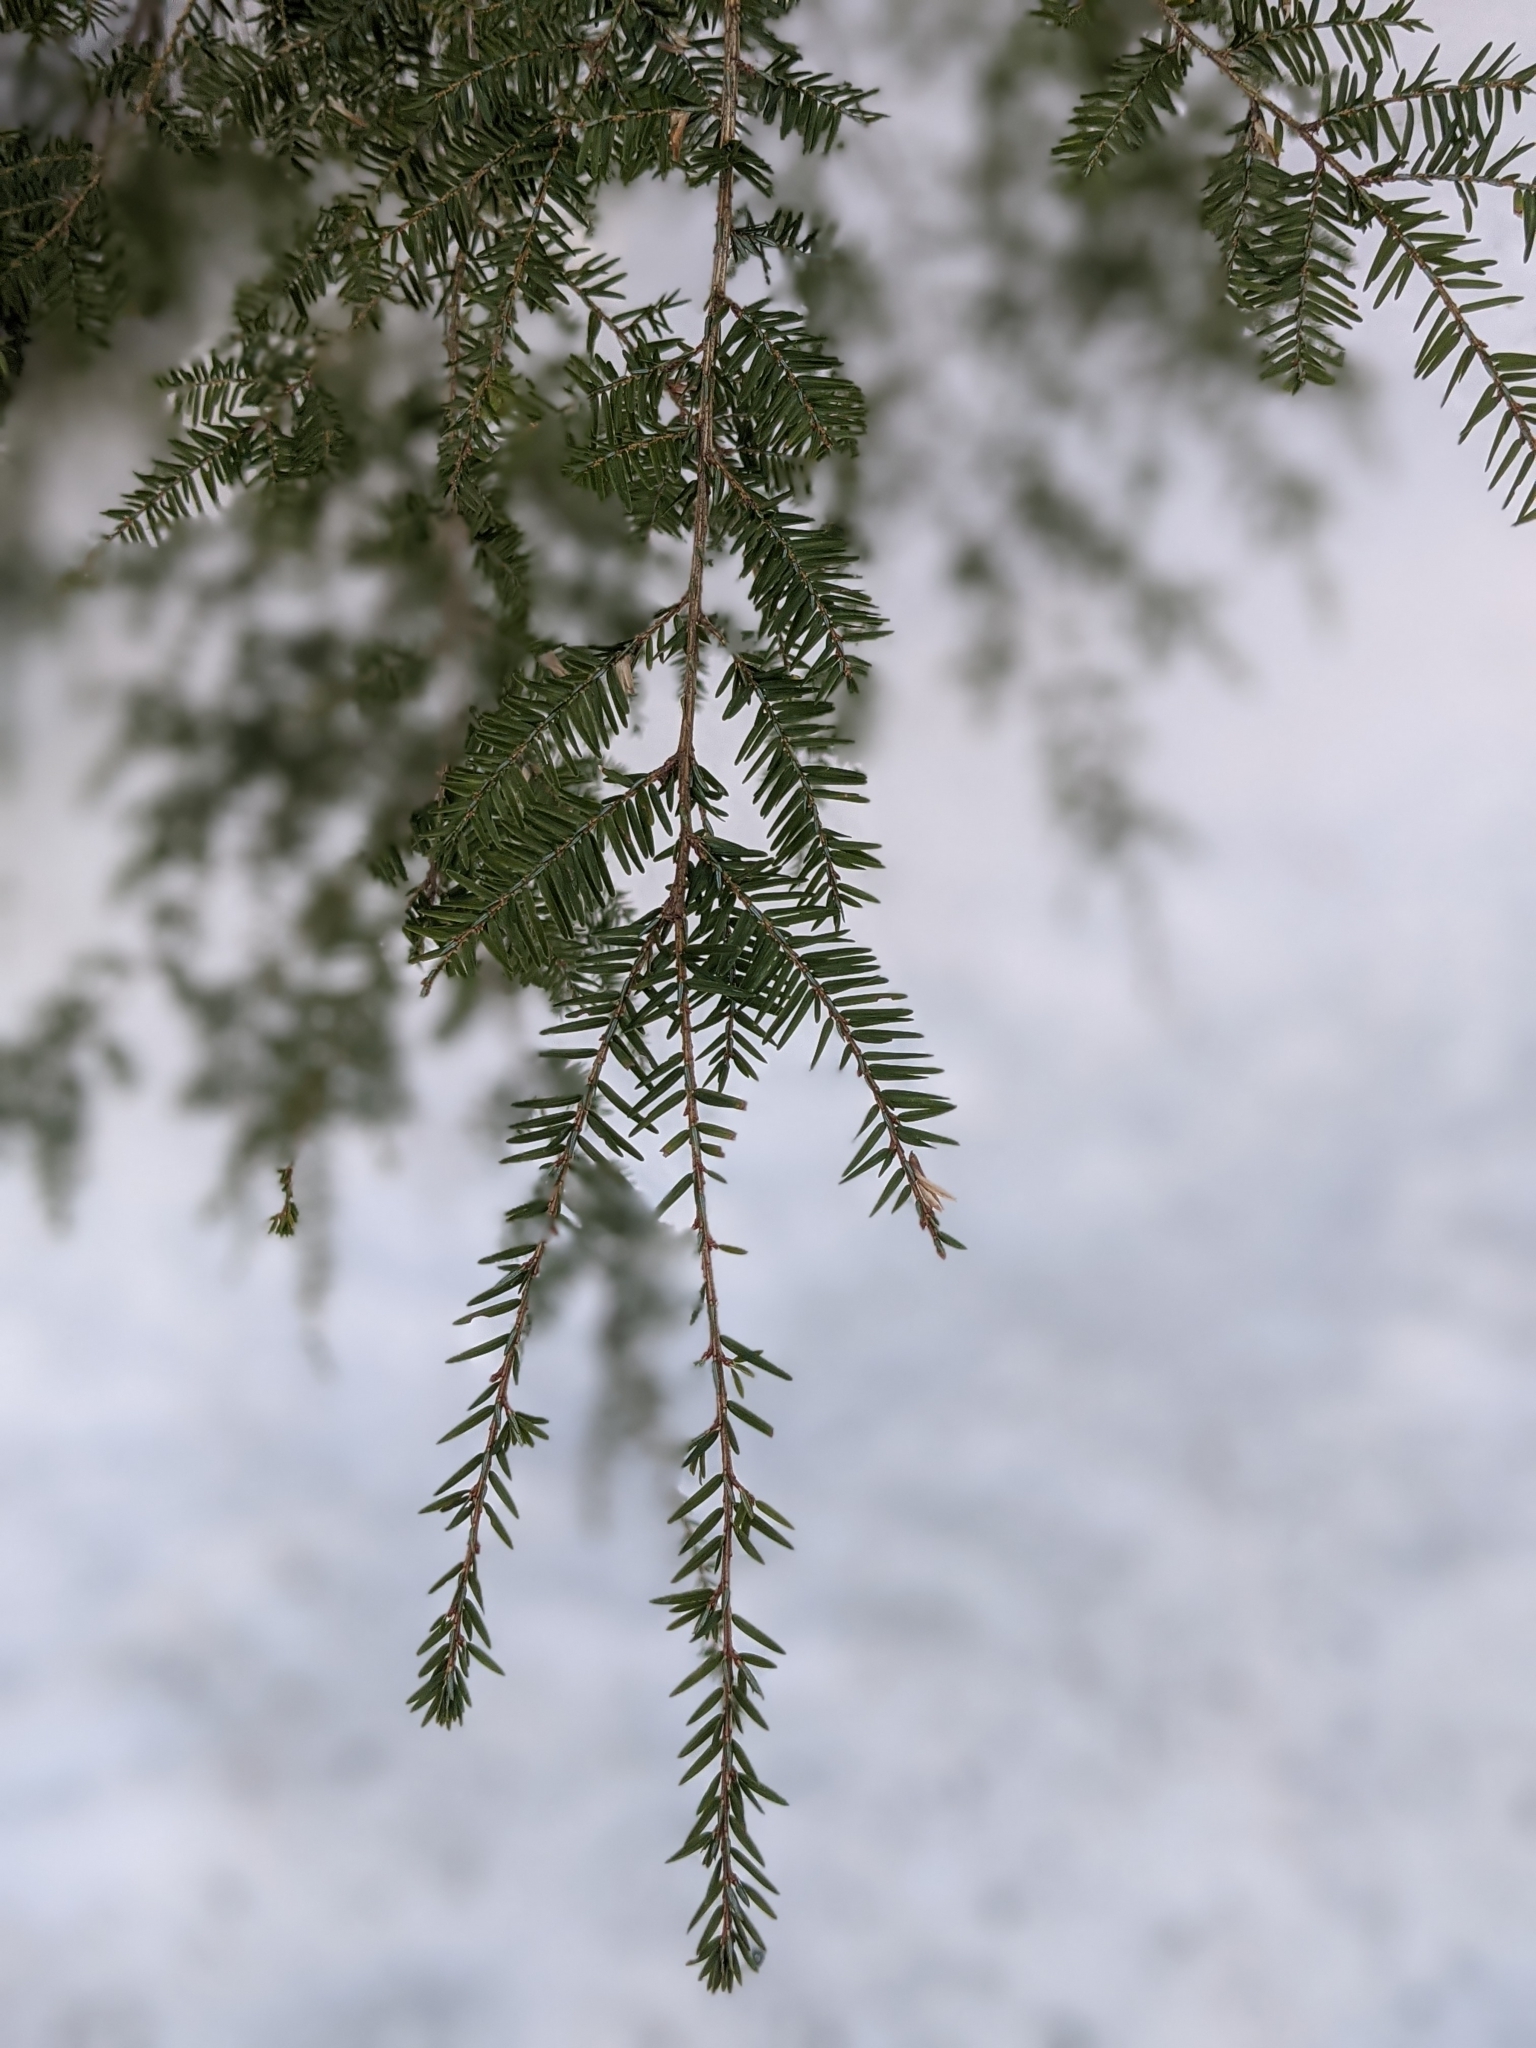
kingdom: Plantae
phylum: Tracheophyta
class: Pinopsida
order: Pinales
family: Pinaceae
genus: Tsuga
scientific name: Tsuga canadensis
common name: Eastern hemlock
